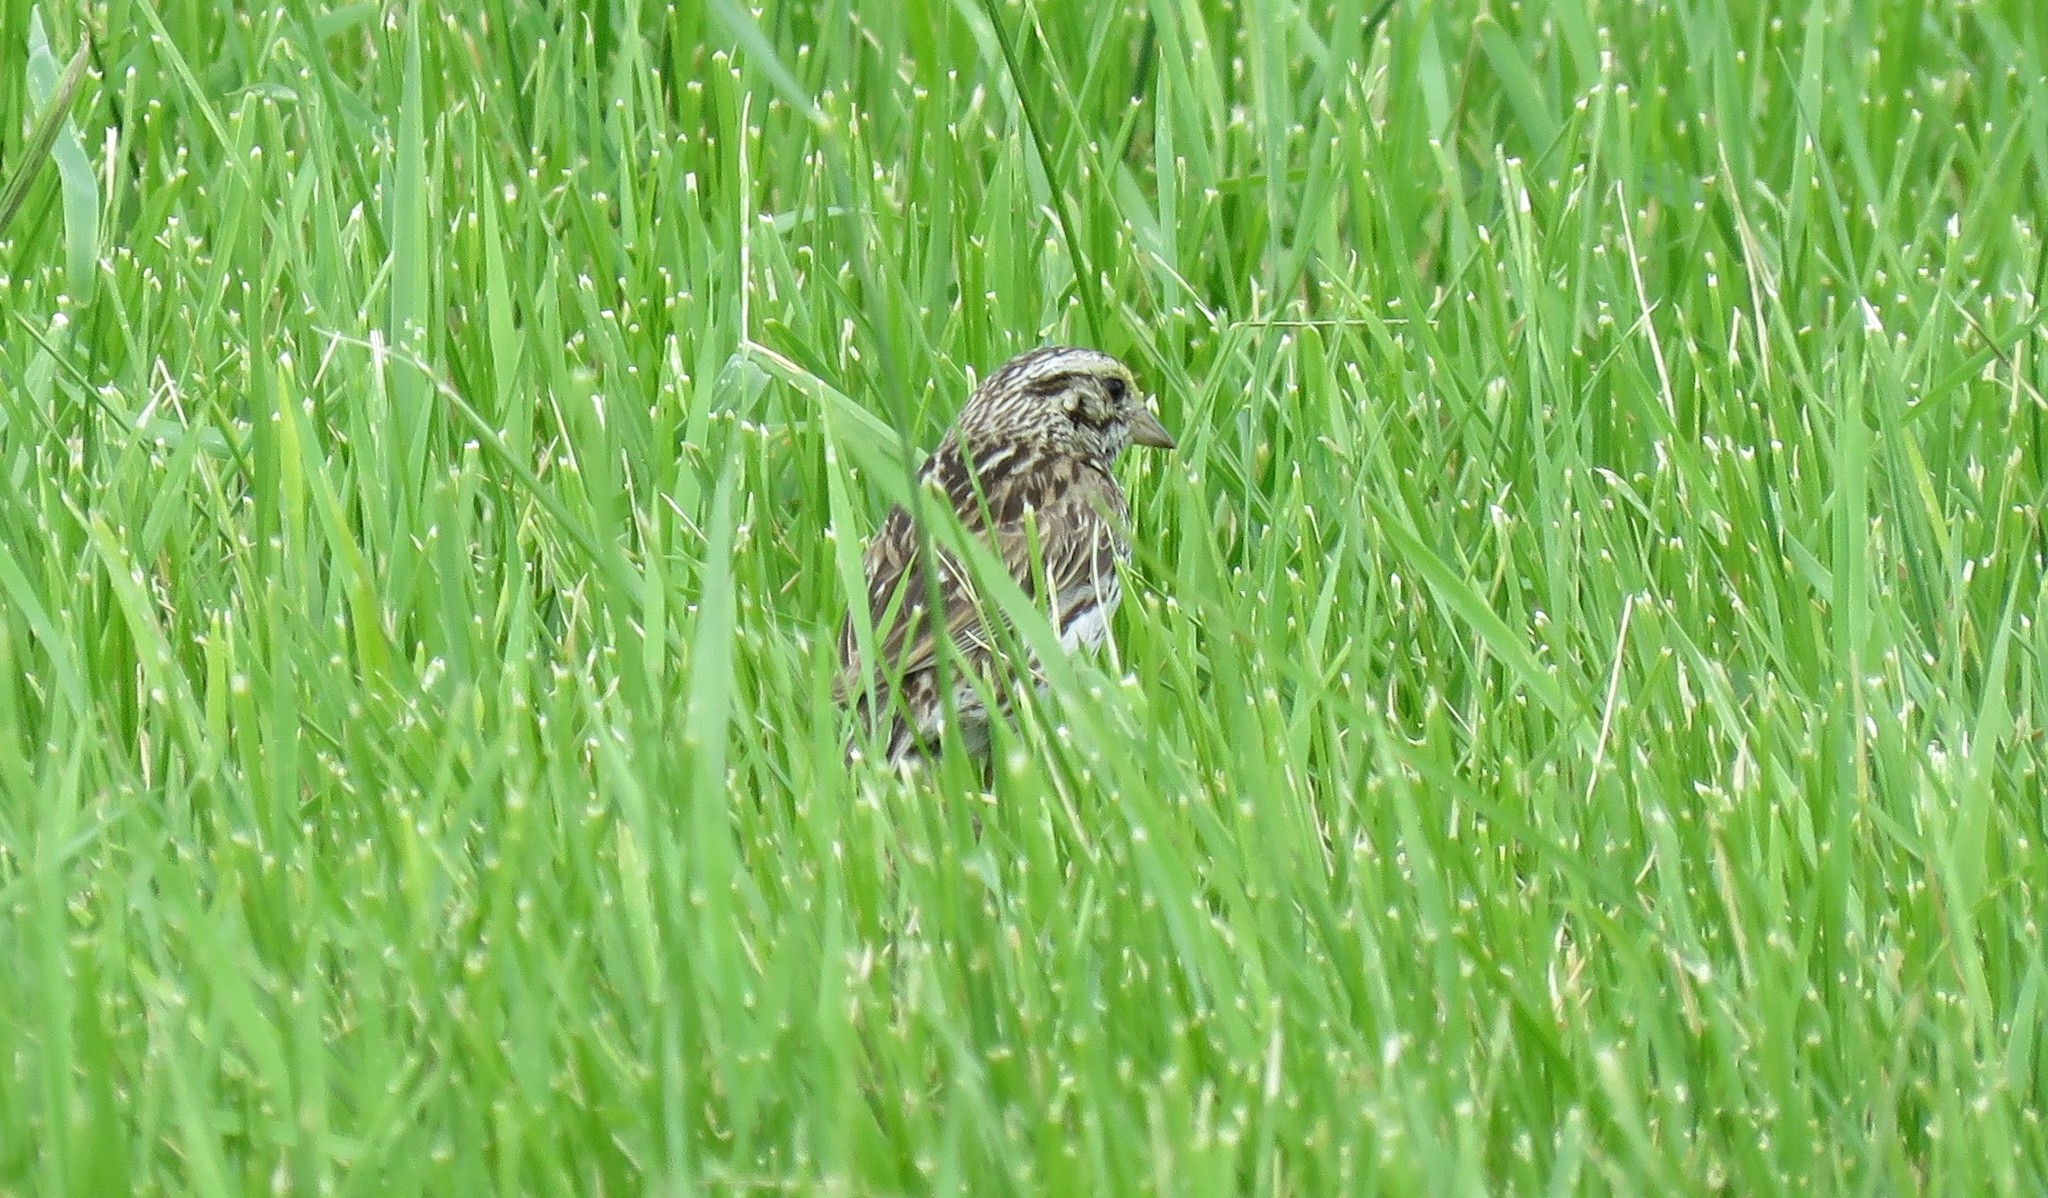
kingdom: Animalia
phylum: Chordata
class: Aves
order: Passeriformes
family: Passerellidae
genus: Passerculus
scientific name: Passerculus sandwichensis
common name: Savannah sparrow
